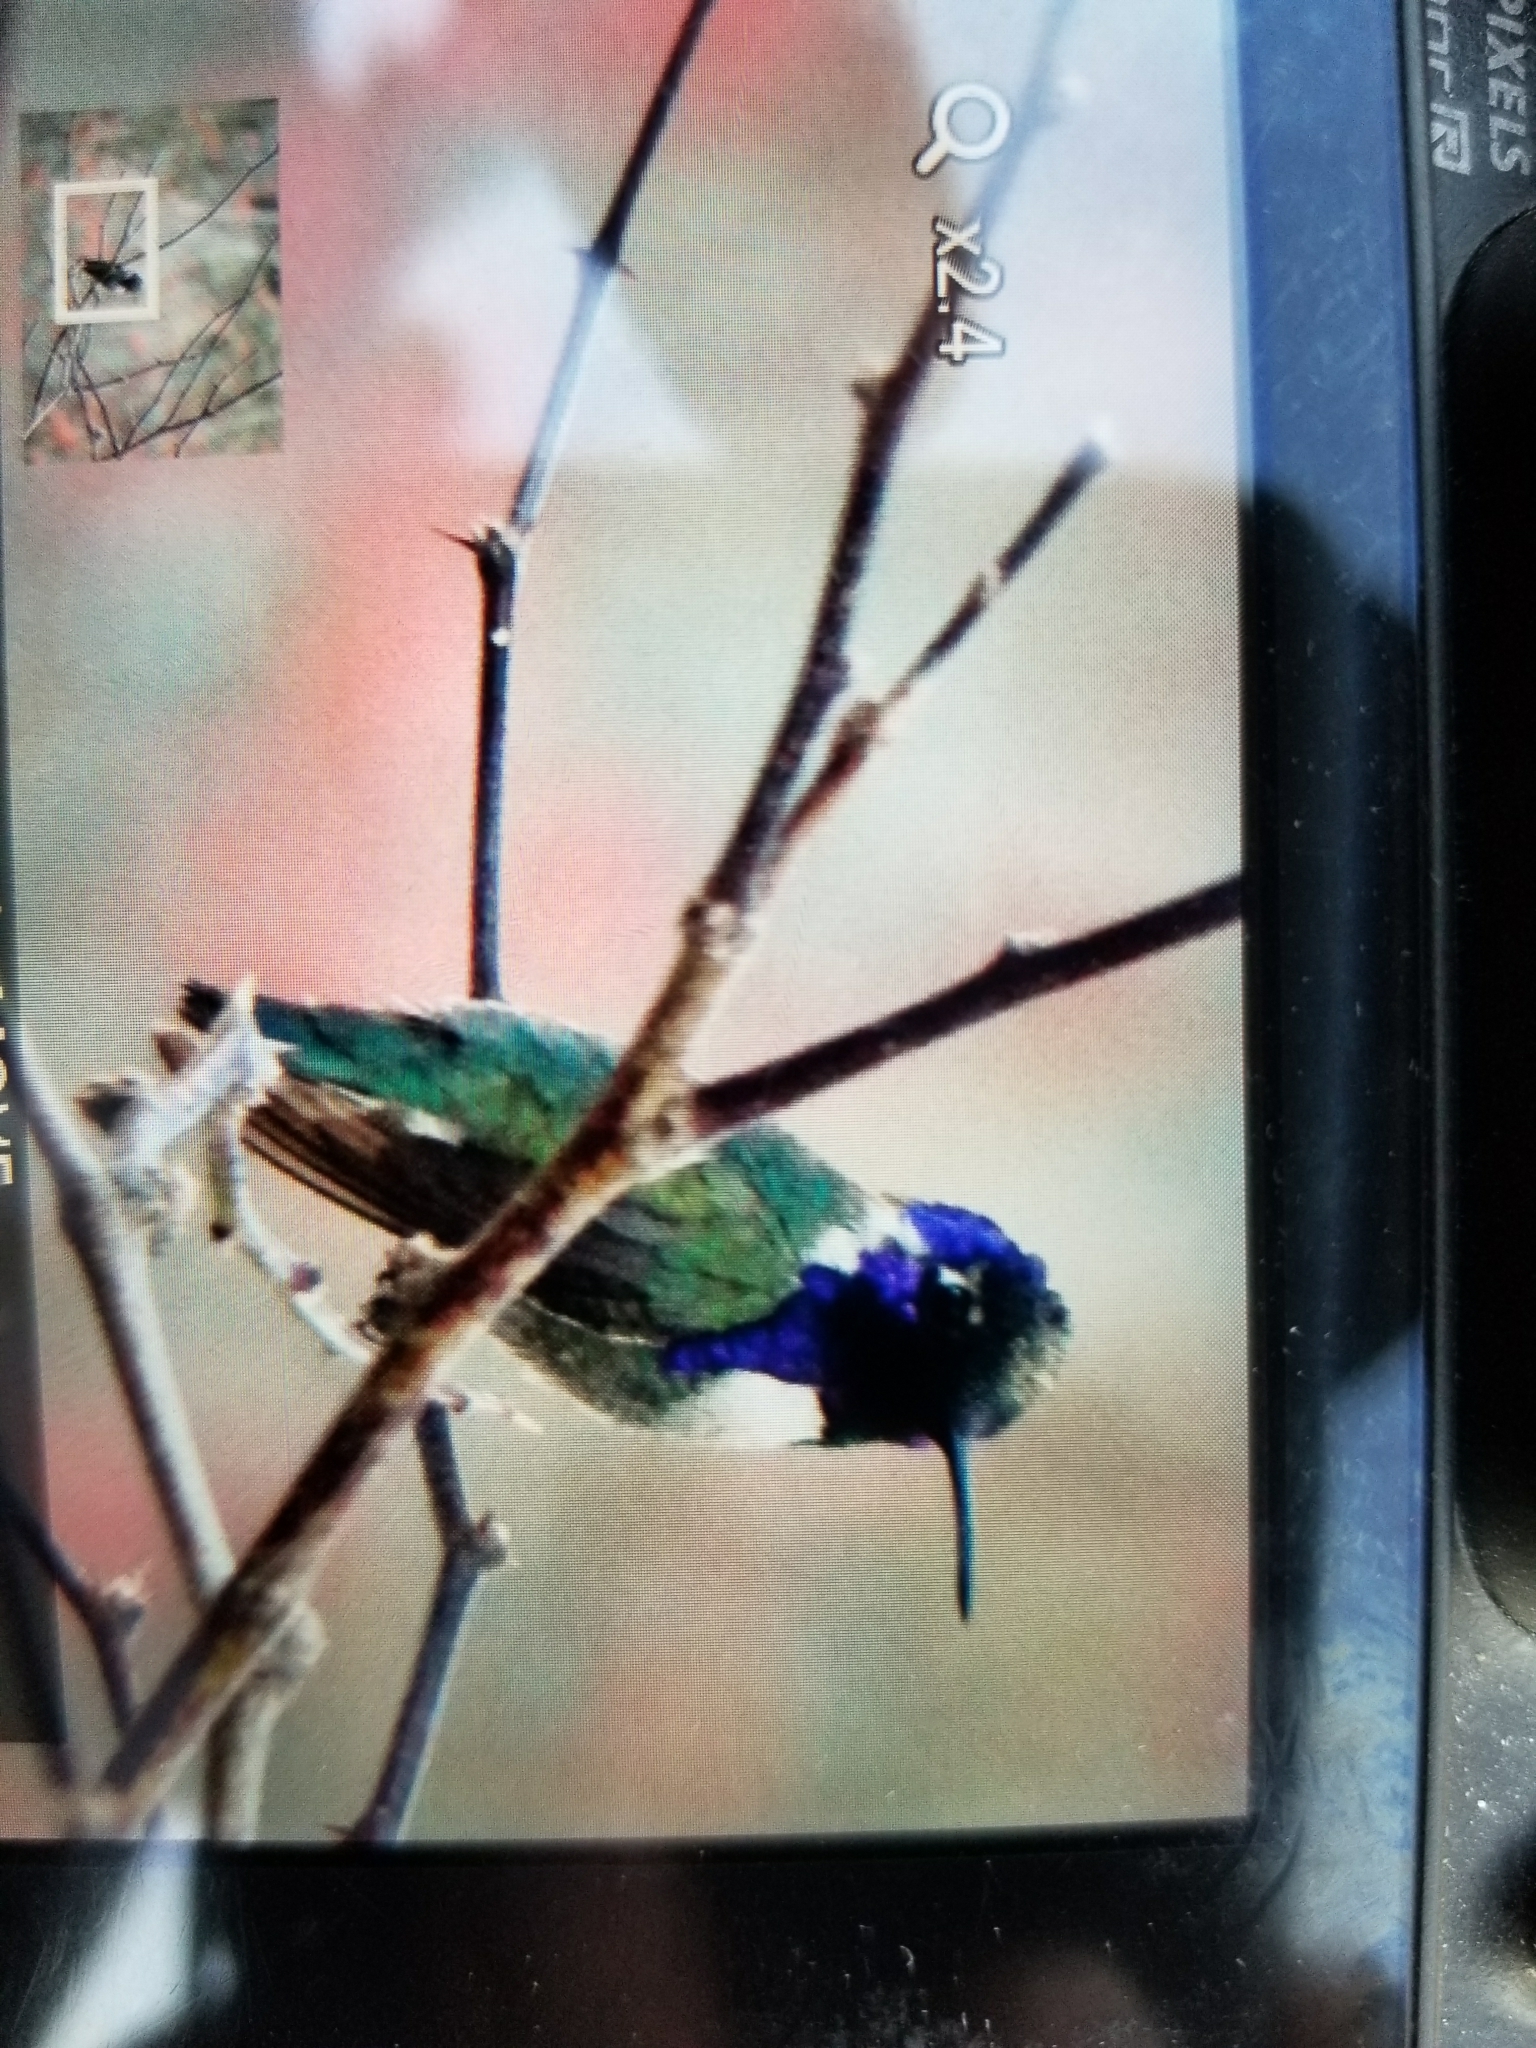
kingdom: Animalia
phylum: Chordata
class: Aves
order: Apodiformes
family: Trochilidae
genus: Calypte
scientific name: Calypte costae
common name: Costa's hummingbird
